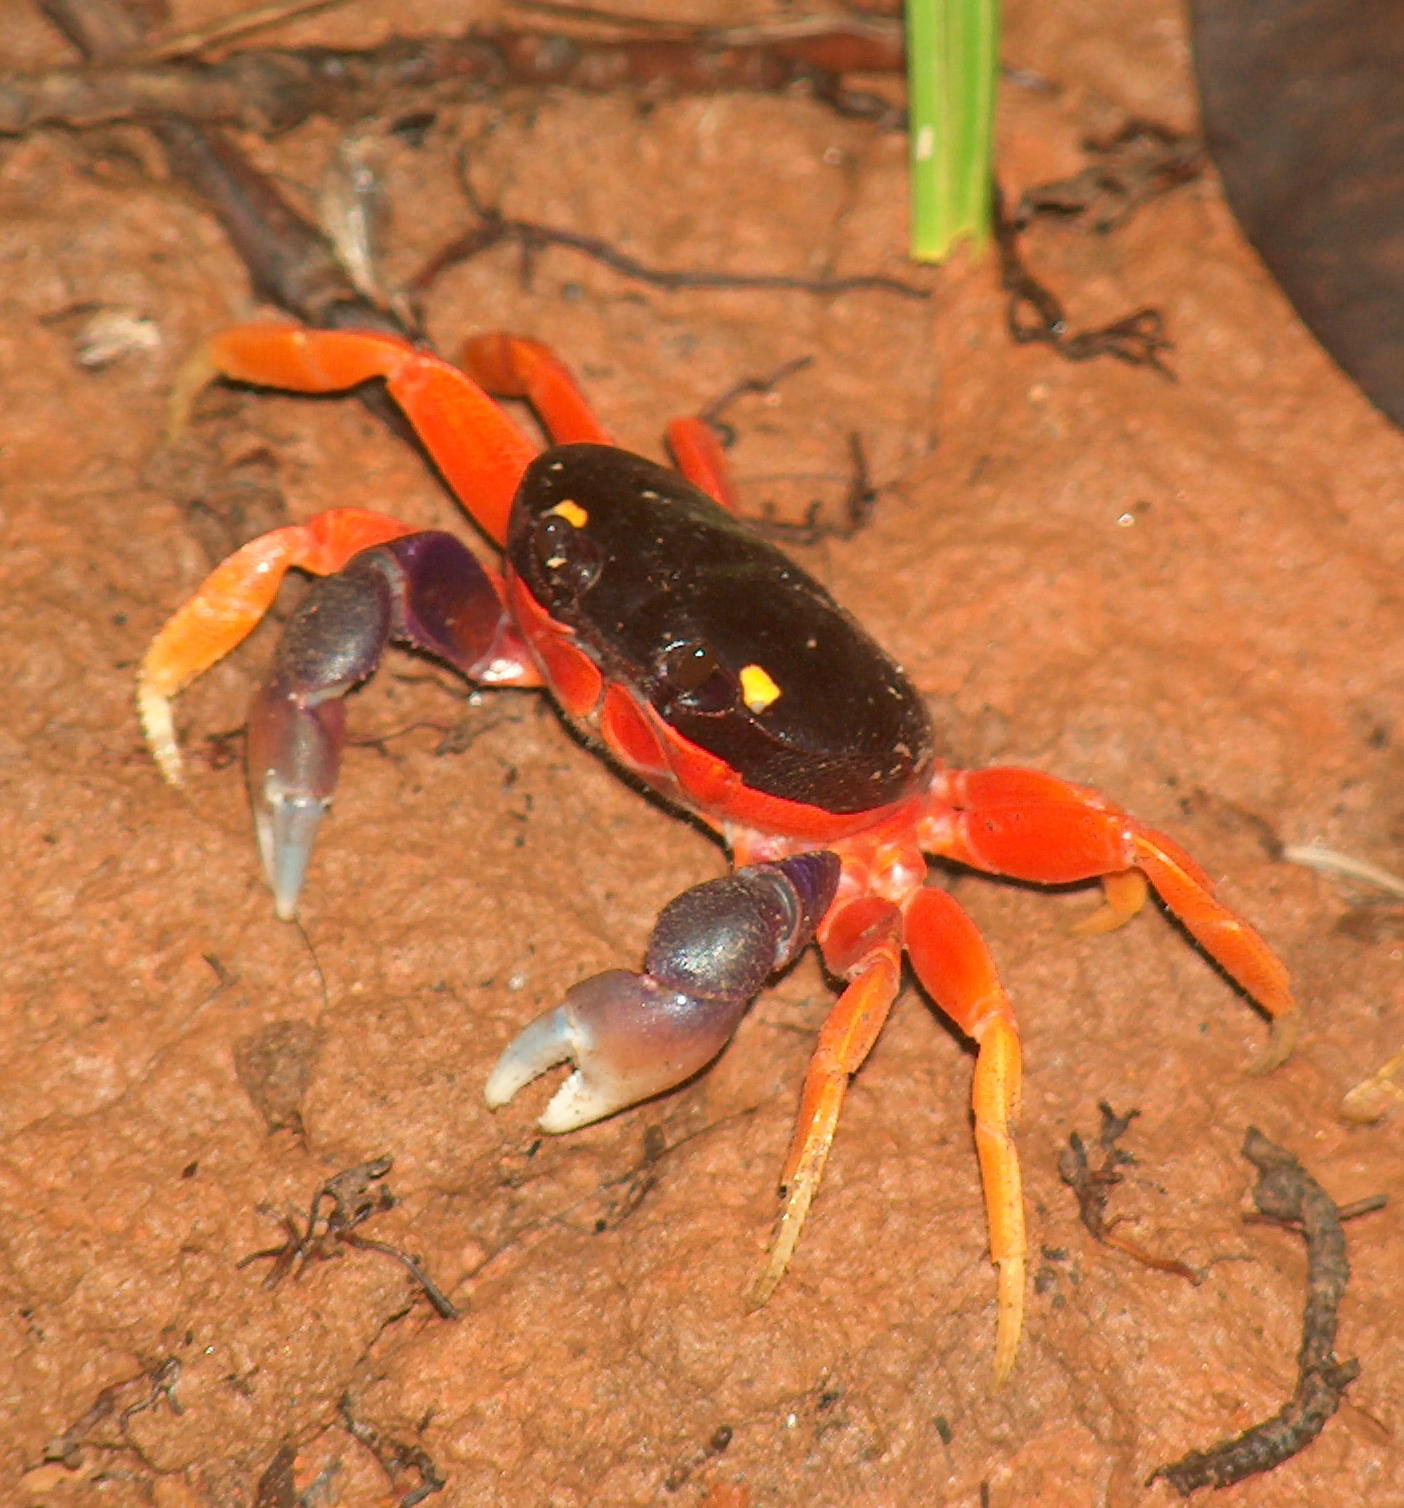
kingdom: Animalia
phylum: Arthropoda
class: Malacostraca
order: Decapoda
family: Gecarcinidae
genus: Gecarcinus
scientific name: Gecarcinus quadratus
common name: Halloween crab
